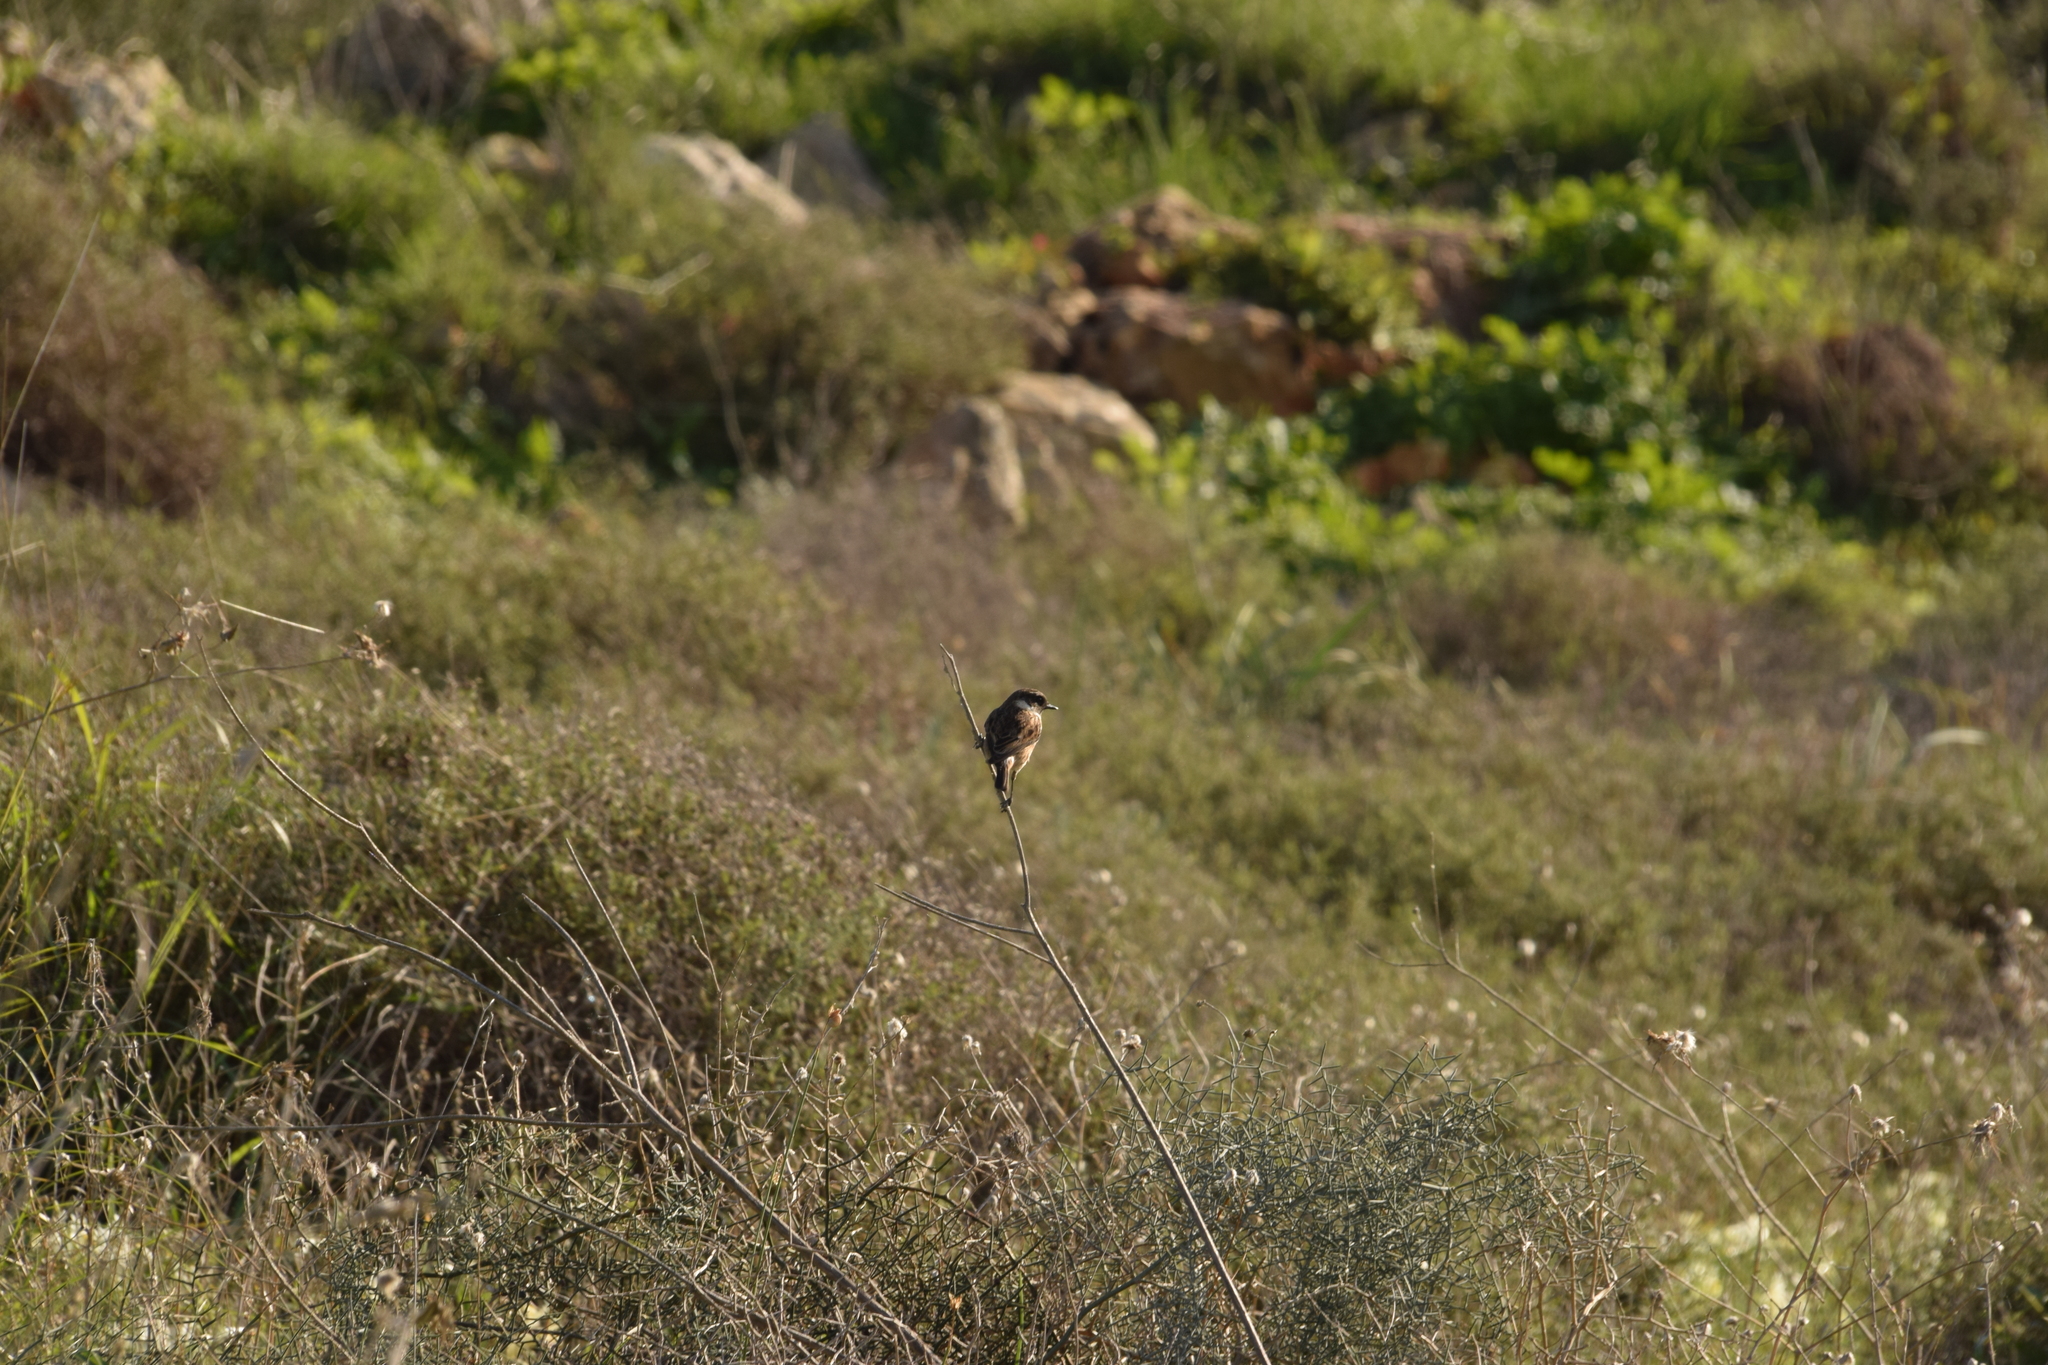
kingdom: Animalia
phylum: Chordata
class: Aves
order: Passeriformes
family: Muscicapidae
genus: Saxicola
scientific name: Saxicola rubicola
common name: European stonechat
